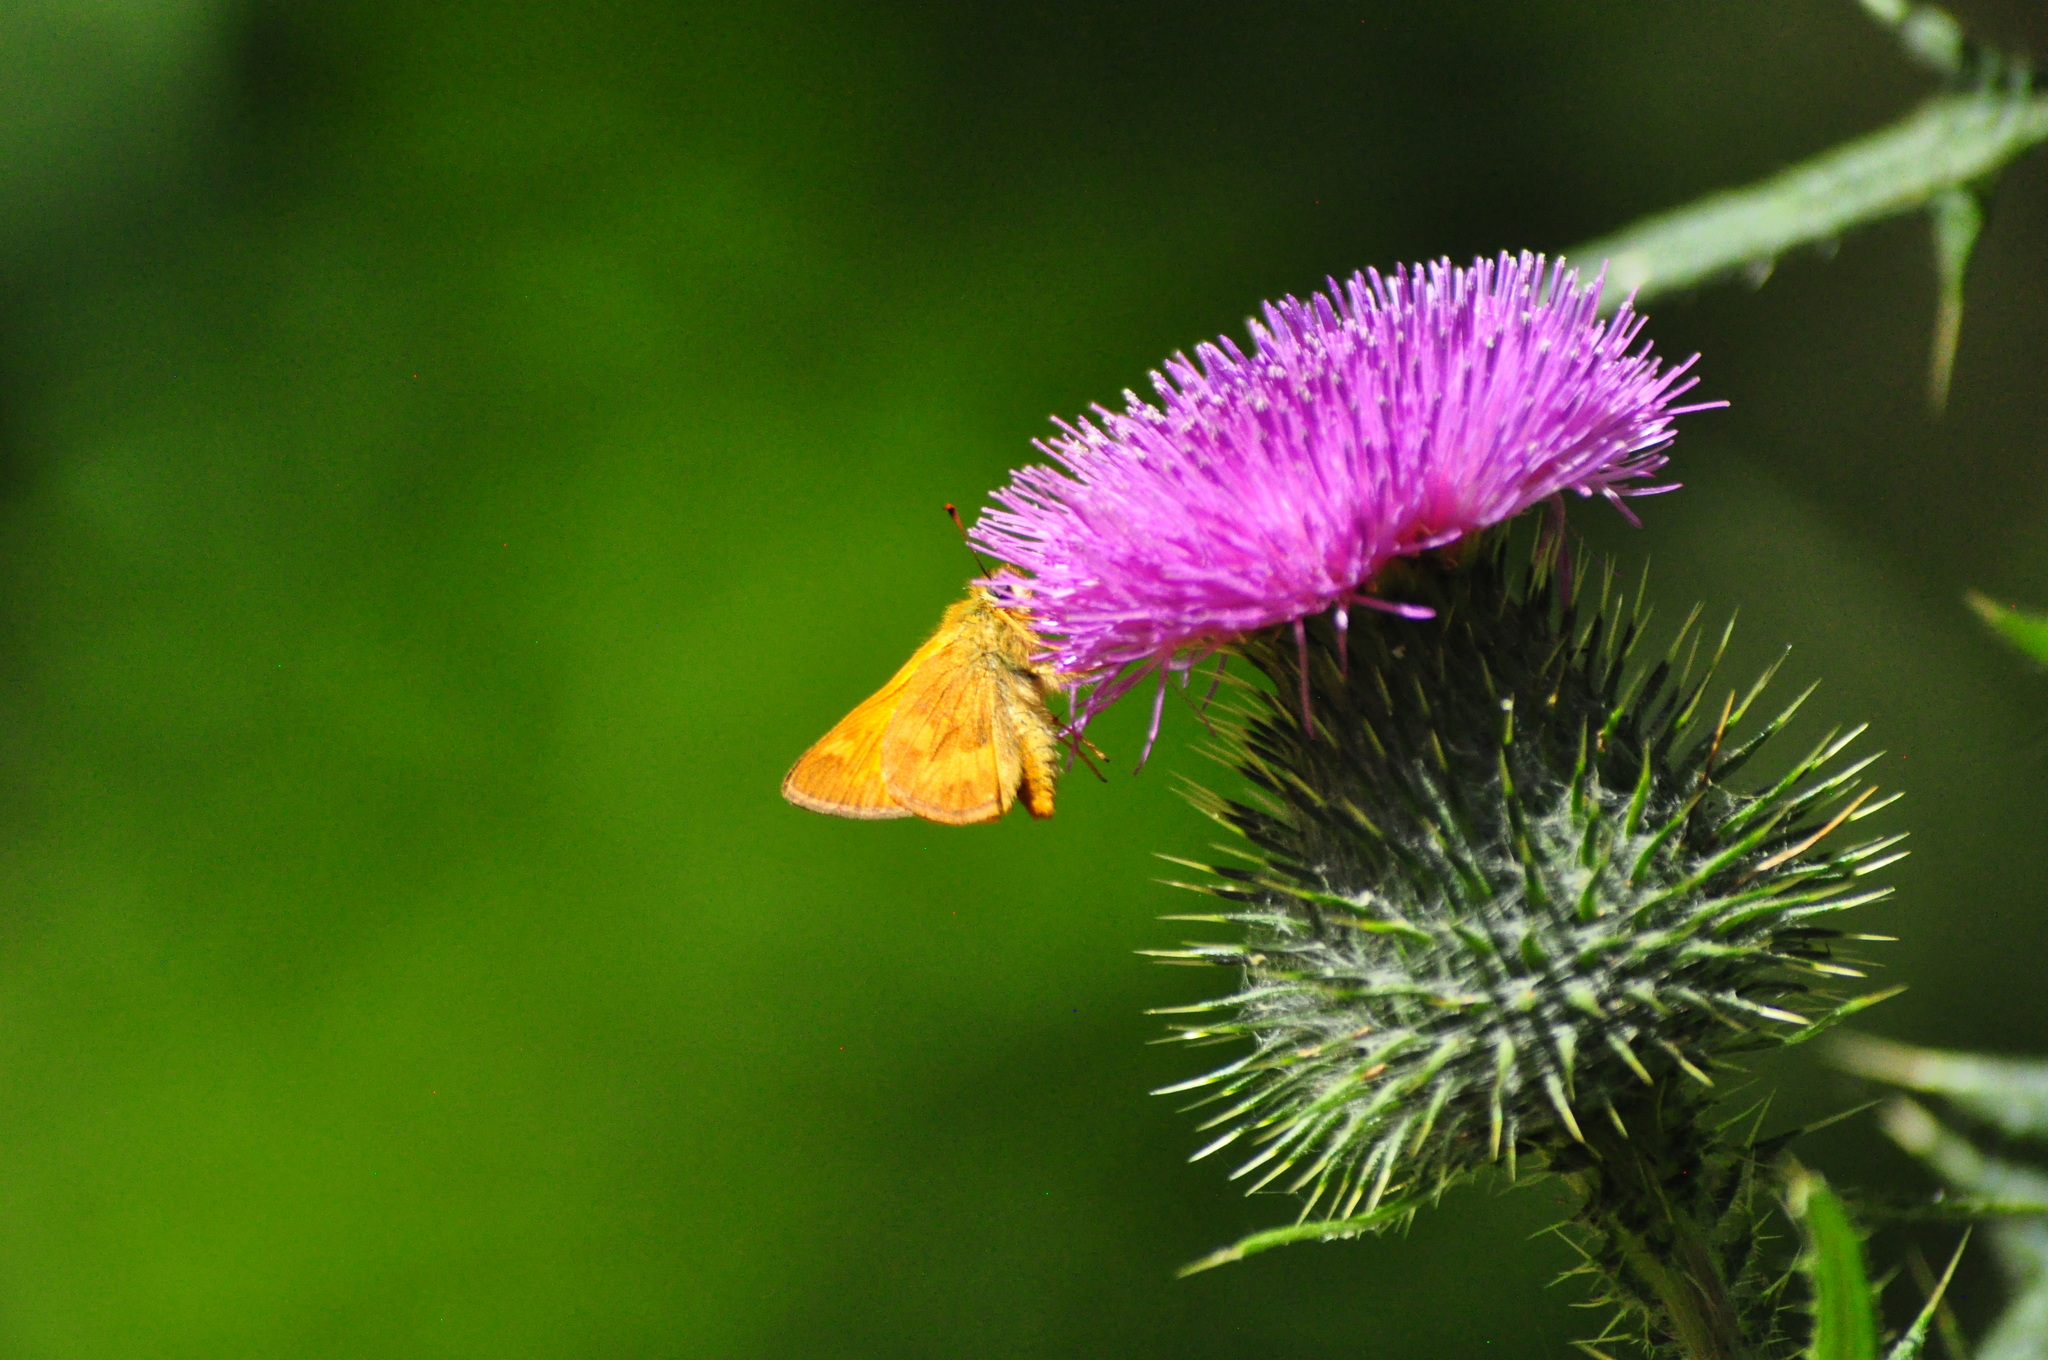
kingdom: Animalia
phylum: Arthropoda
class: Insecta
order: Lepidoptera
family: Hesperiidae
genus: Ochlodes
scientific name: Ochlodes sylvanoides
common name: Woodland skipper
